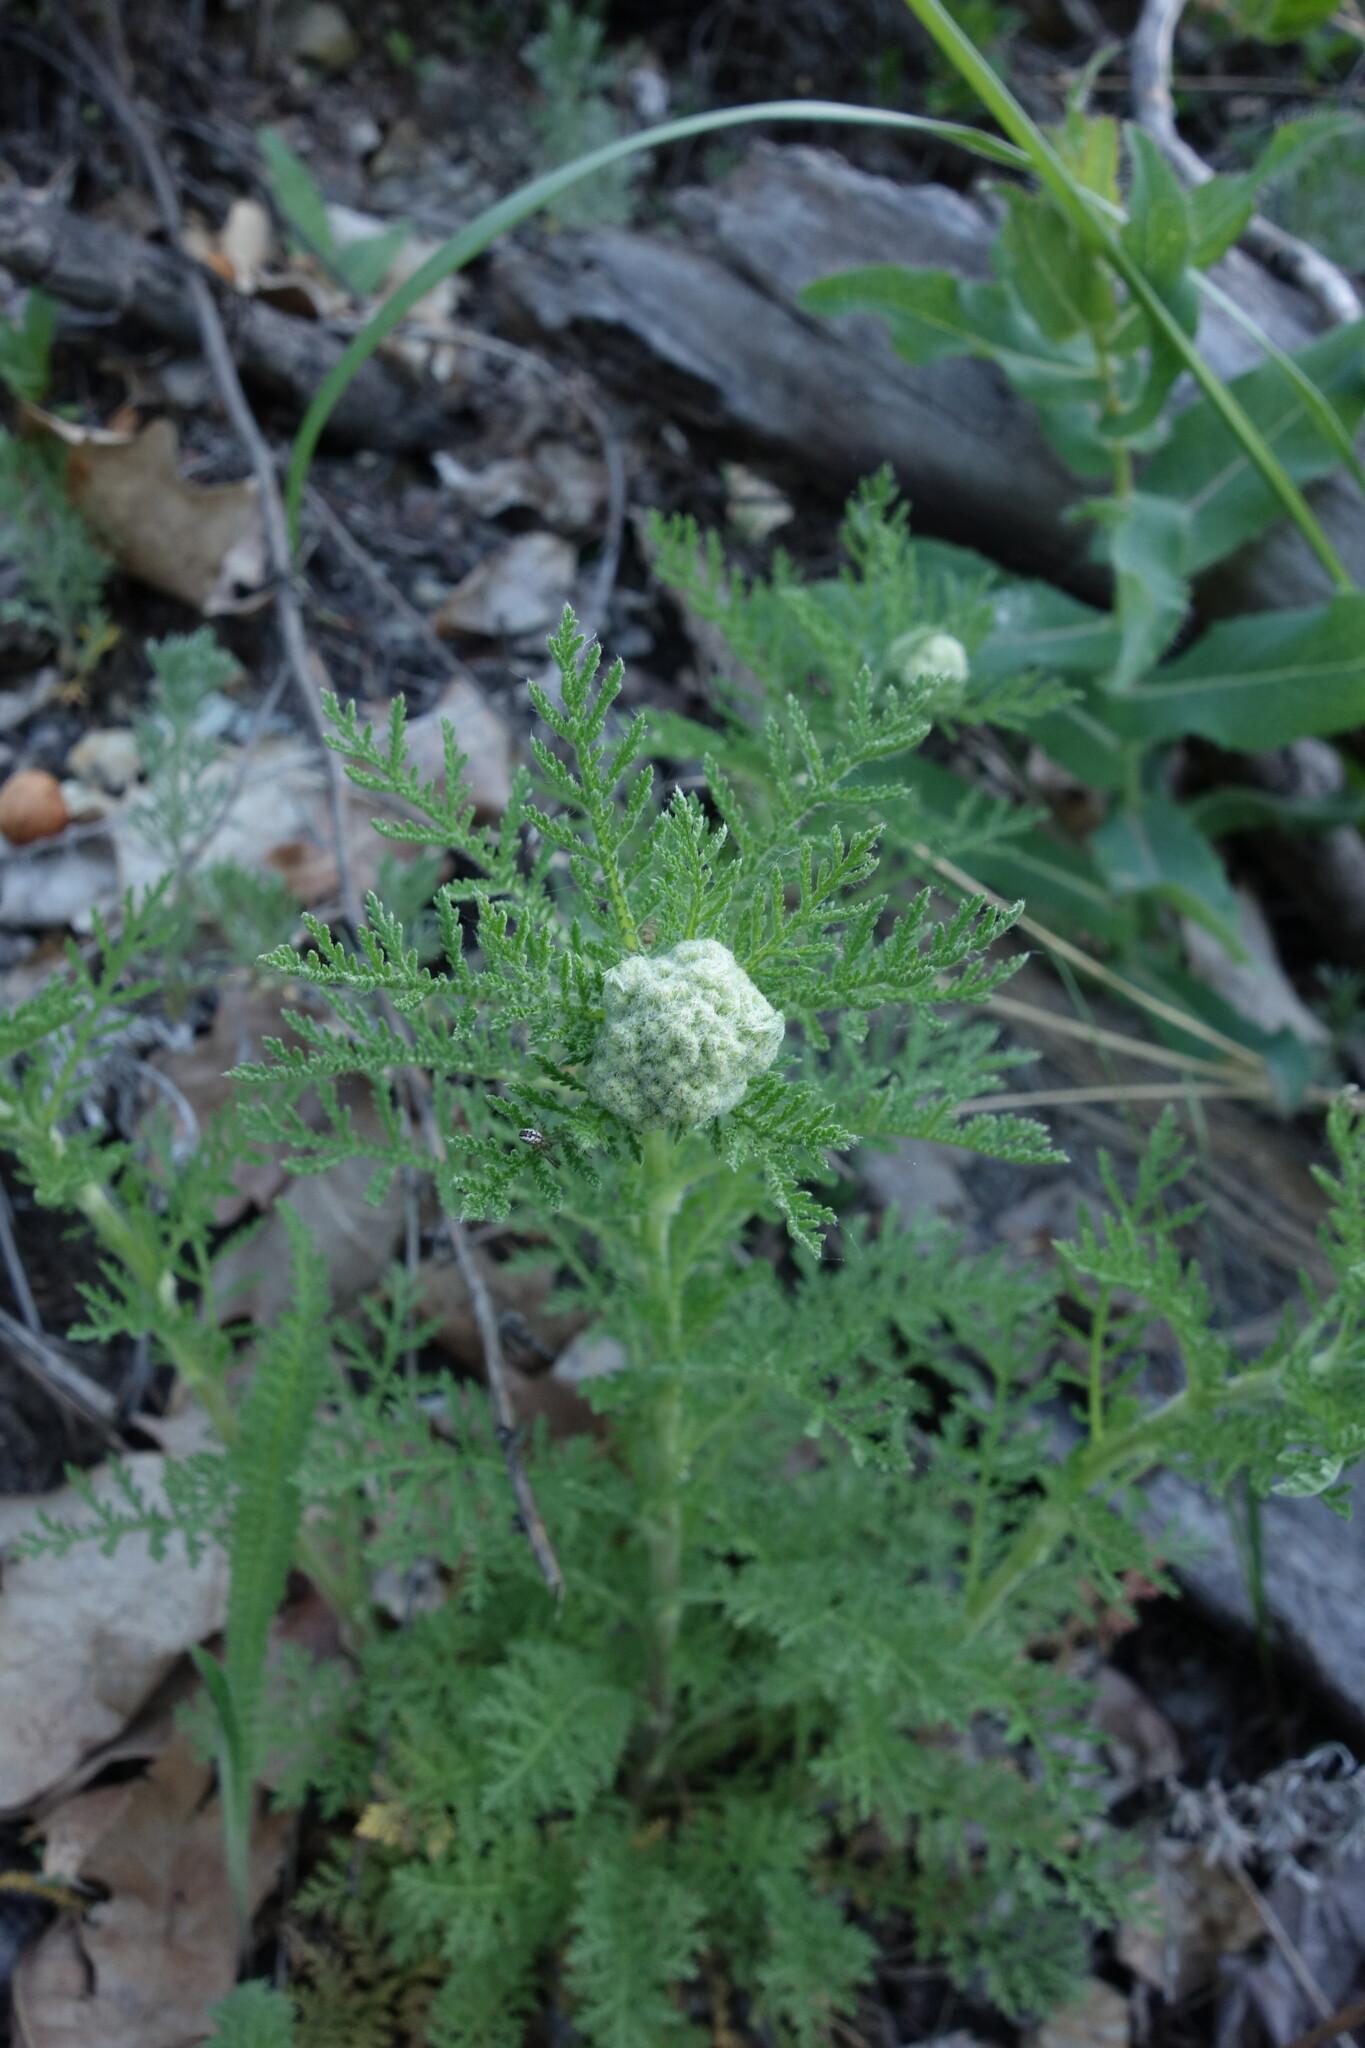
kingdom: Plantae
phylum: Tracheophyta
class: Magnoliopsida
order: Asterales
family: Asteraceae
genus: Achillea
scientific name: Achillea nobilis
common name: Noble yarrow
